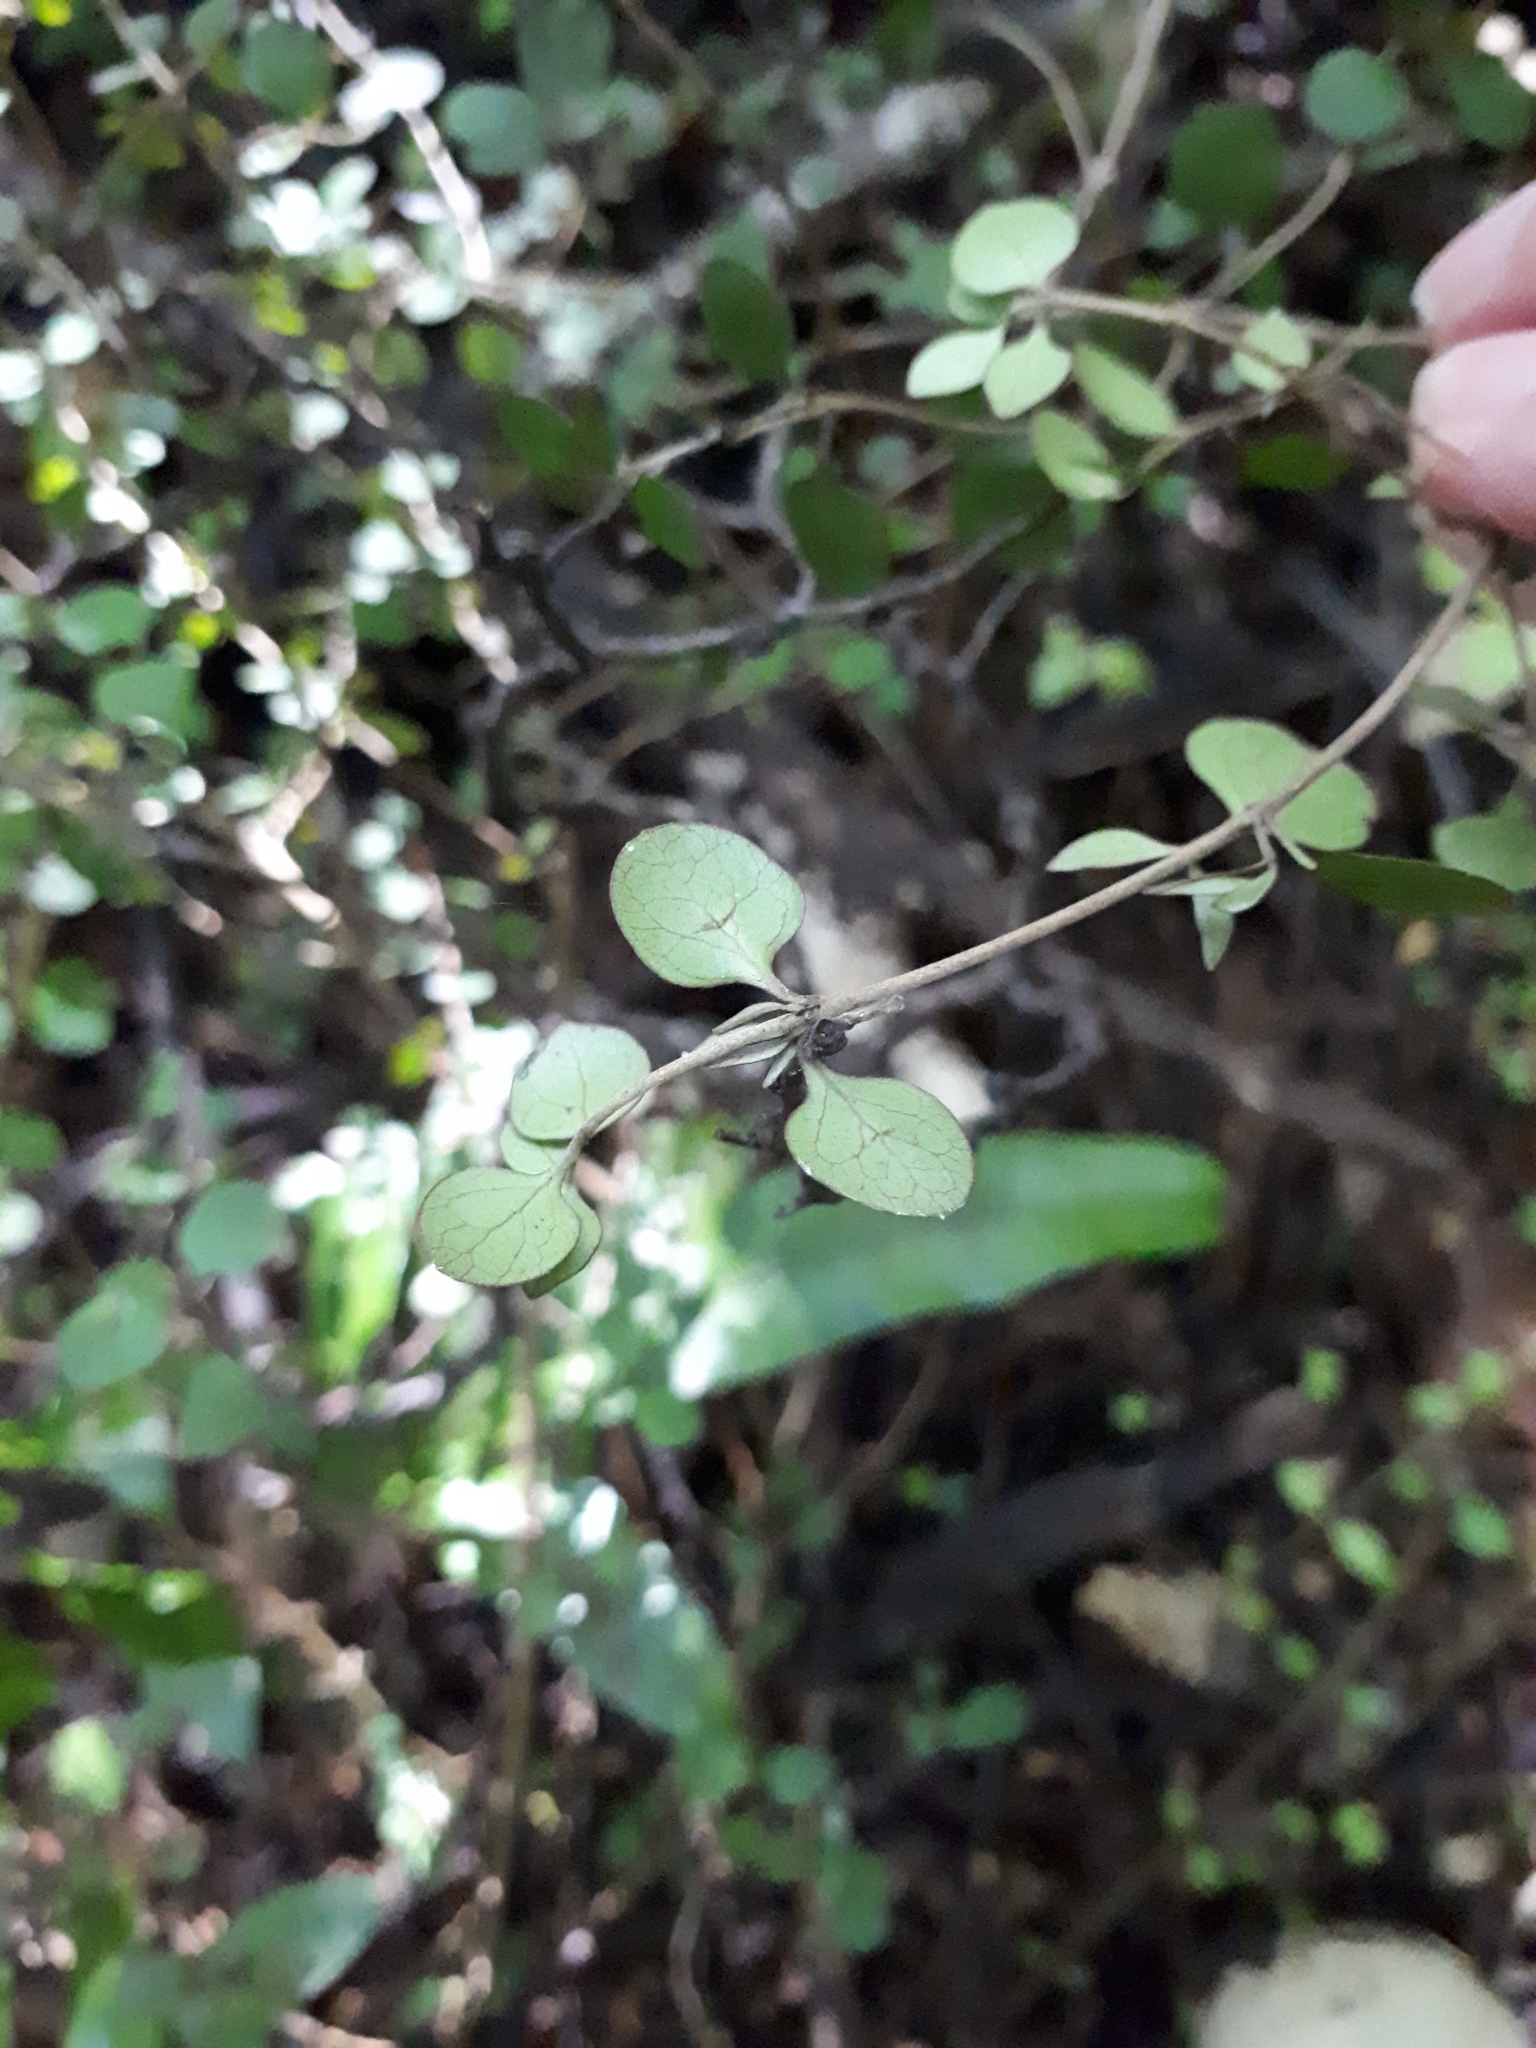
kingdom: Plantae
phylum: Tracheophyta
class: Magnoliopsida
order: Gentianales
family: Rubiaceae
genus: Coprosma
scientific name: Coprosma rotundifolia
